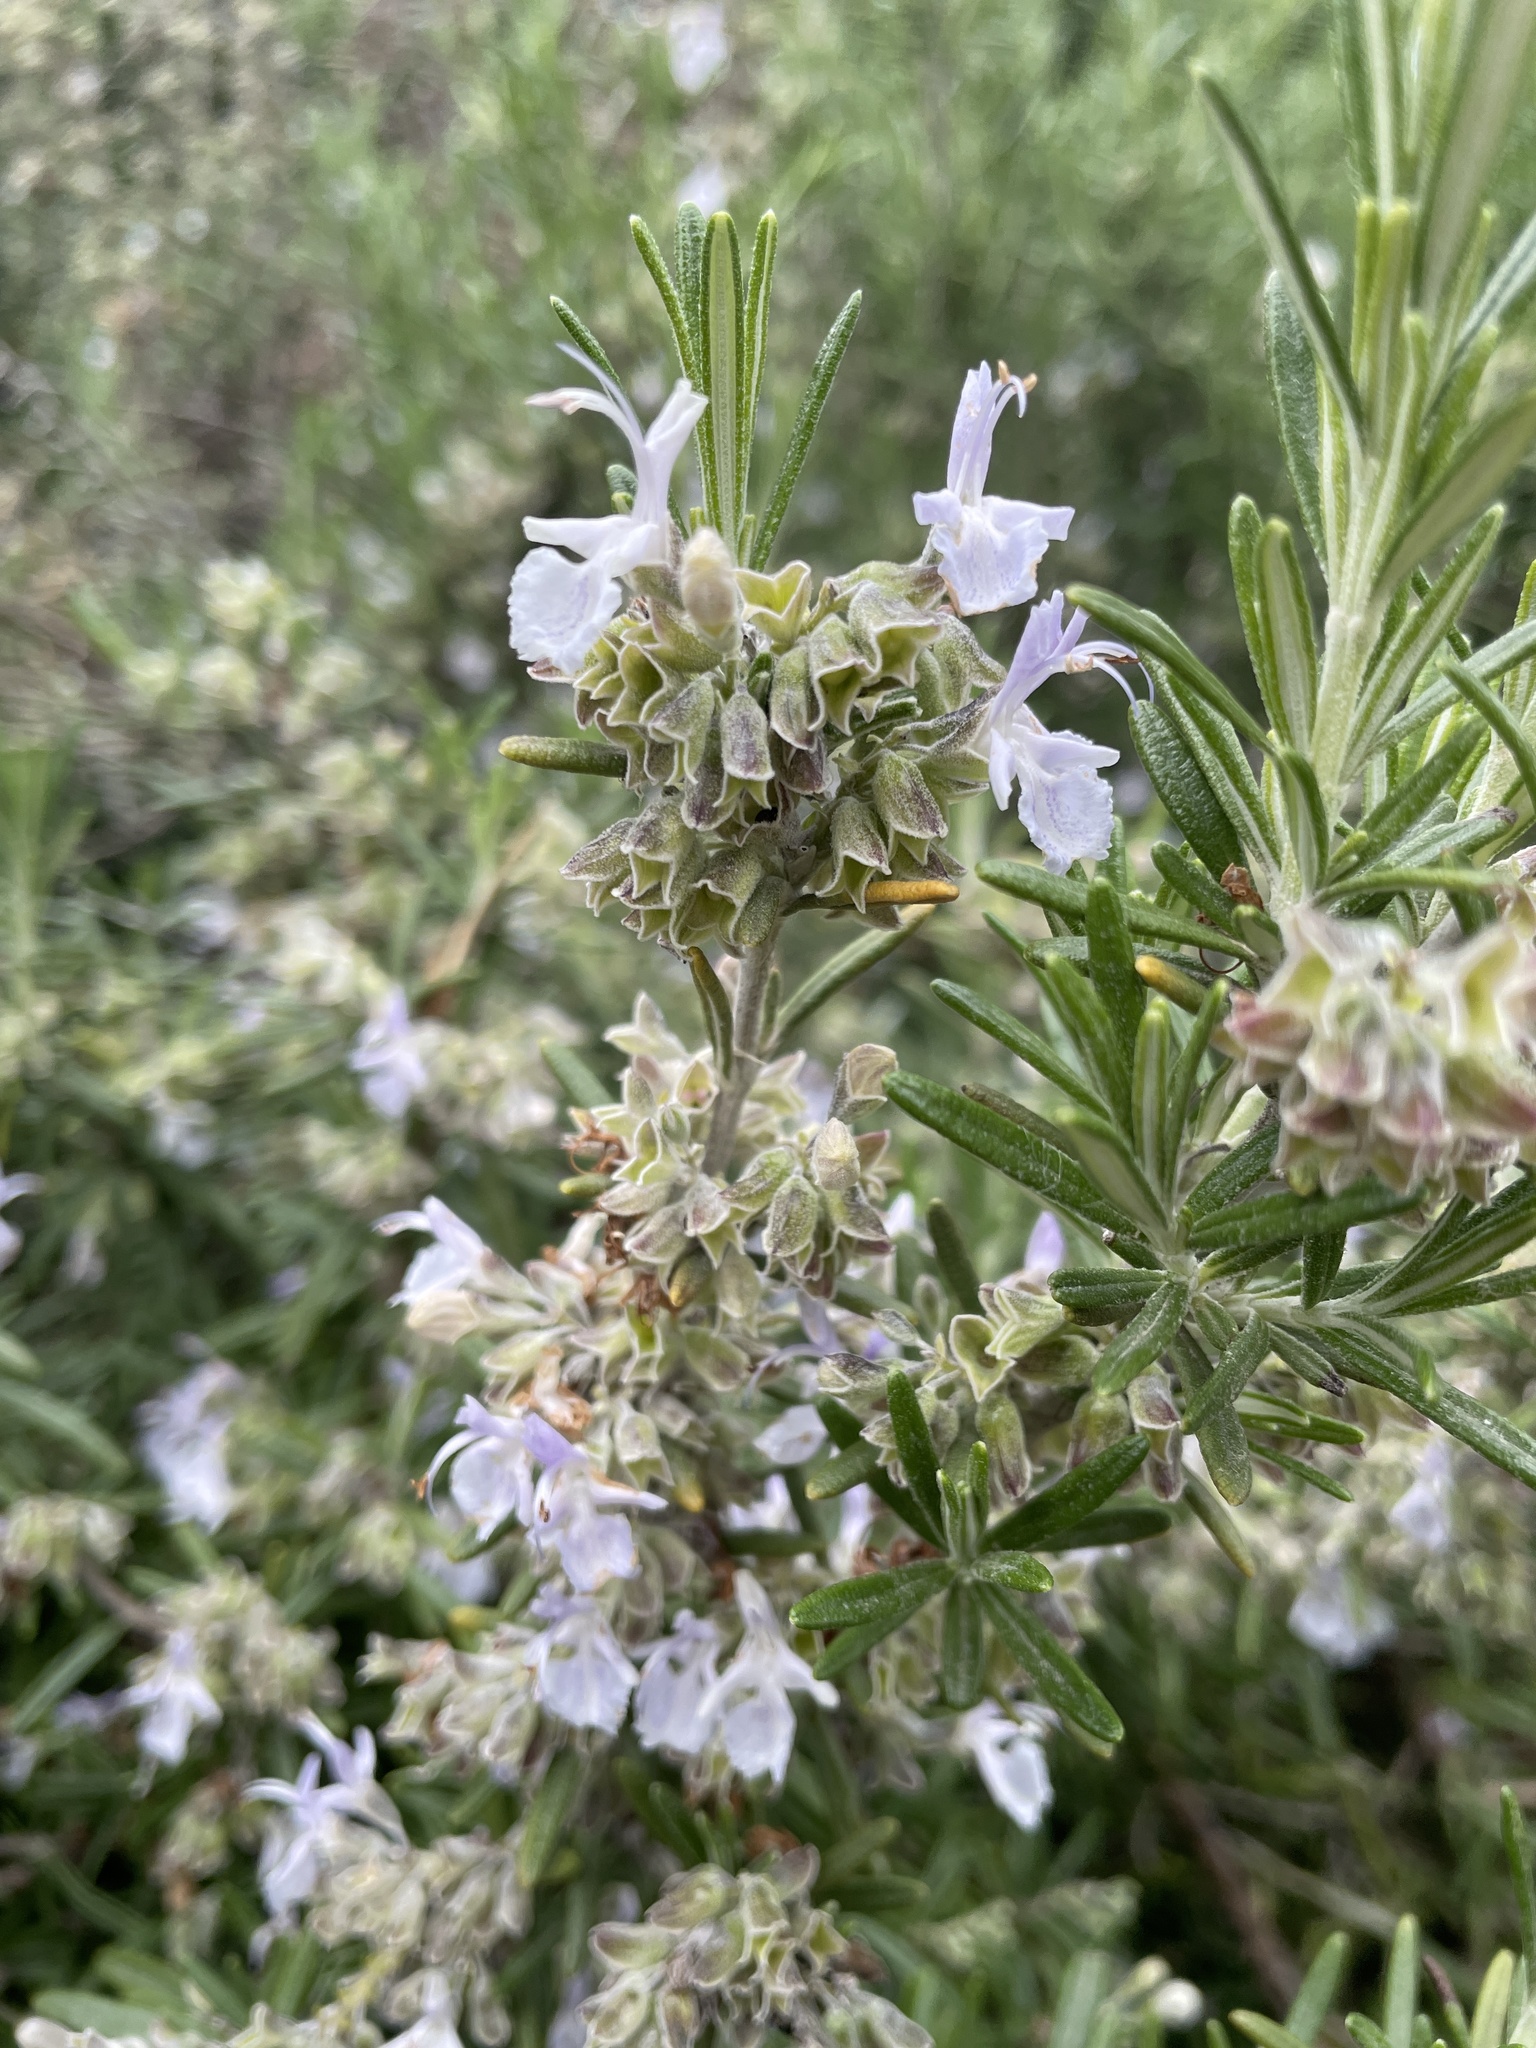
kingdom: Plantae
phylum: Tracheophyta
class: Magnoliopsida
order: Lamiales
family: Lamiaceae
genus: Salvia
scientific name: Salvia rosmarinus
